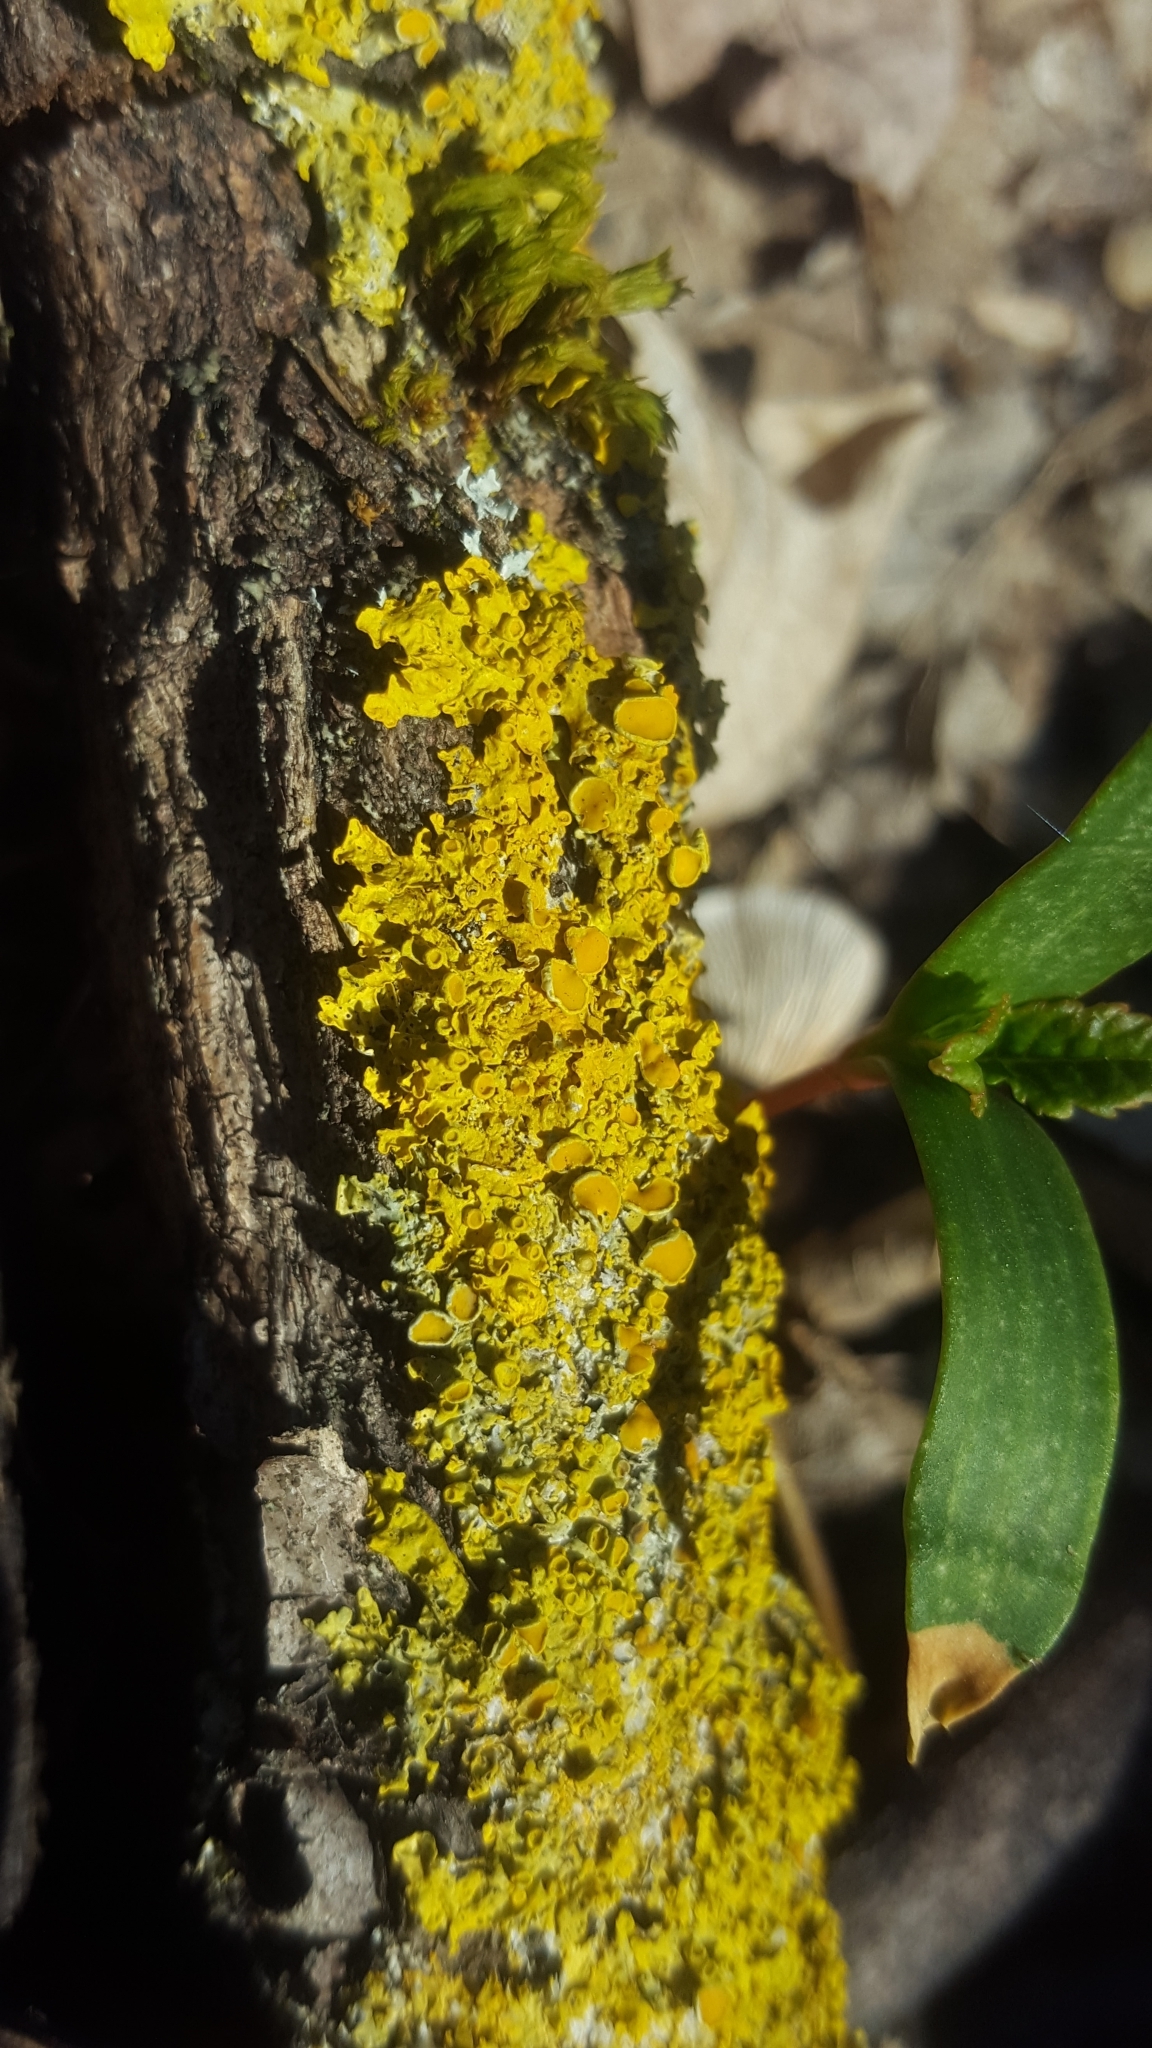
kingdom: Fungi
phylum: Ascomycota
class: Lecanoromycetes
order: Teloschistales
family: Teloschistaceae
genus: Xanthoria
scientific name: Xanthoria parietina
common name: Common orange lichen
